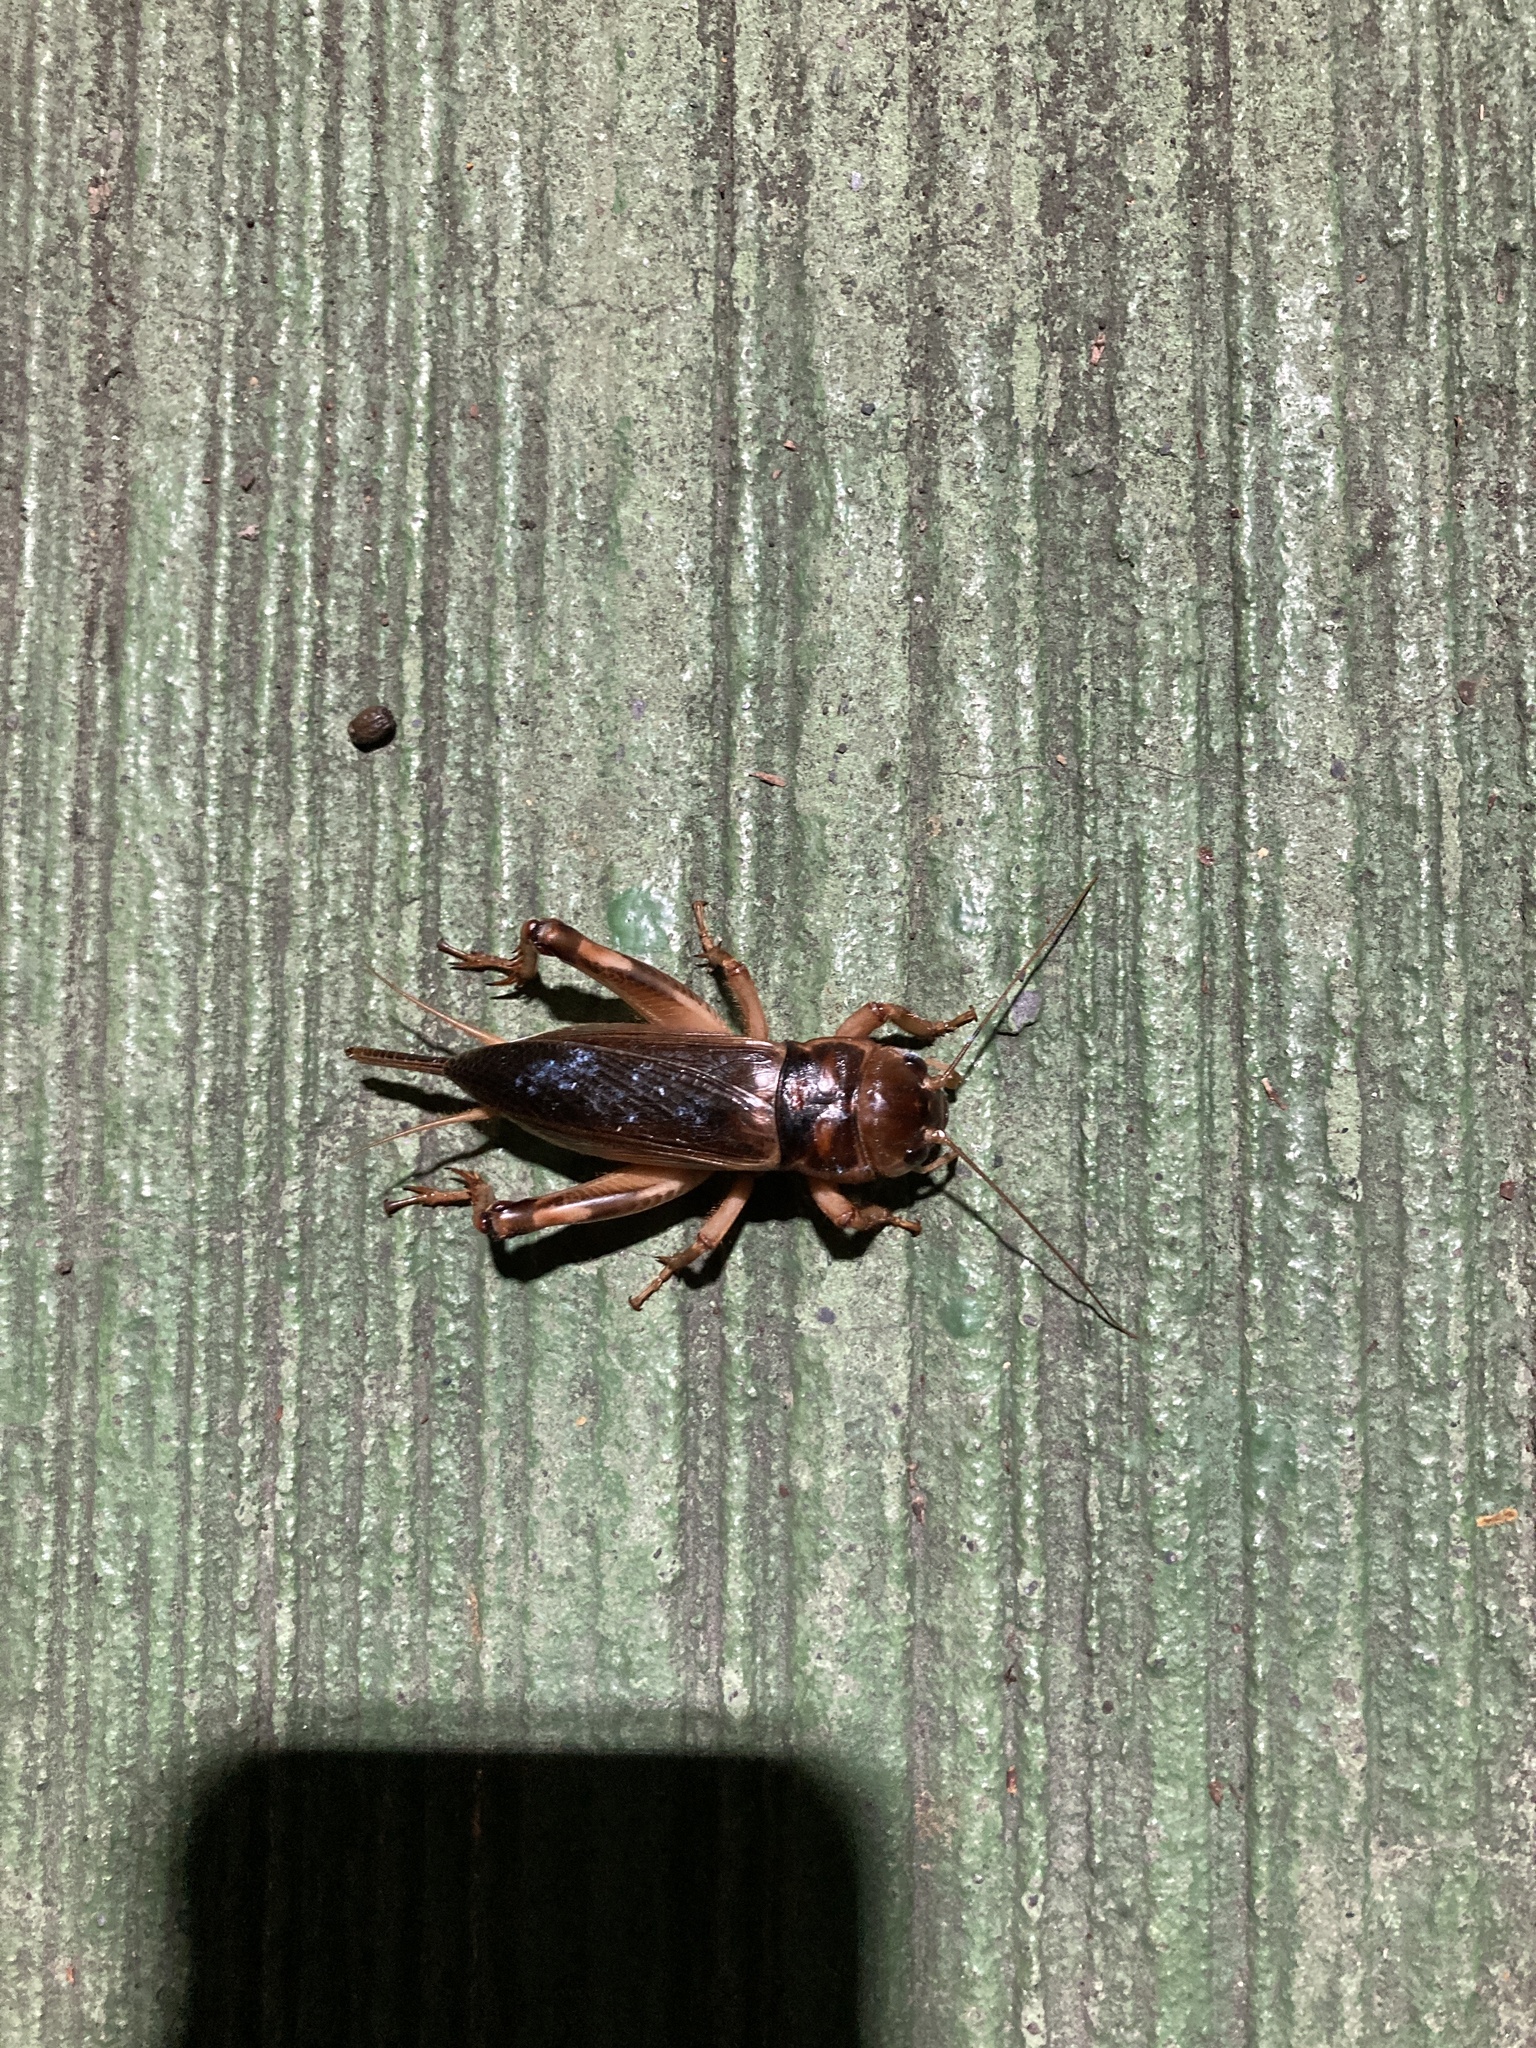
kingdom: Animalia
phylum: Arthropoda
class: Insecta
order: Orthoptera
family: Gryllidae
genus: Tarbinskiellus
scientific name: Tarbinskiellus portentosus
